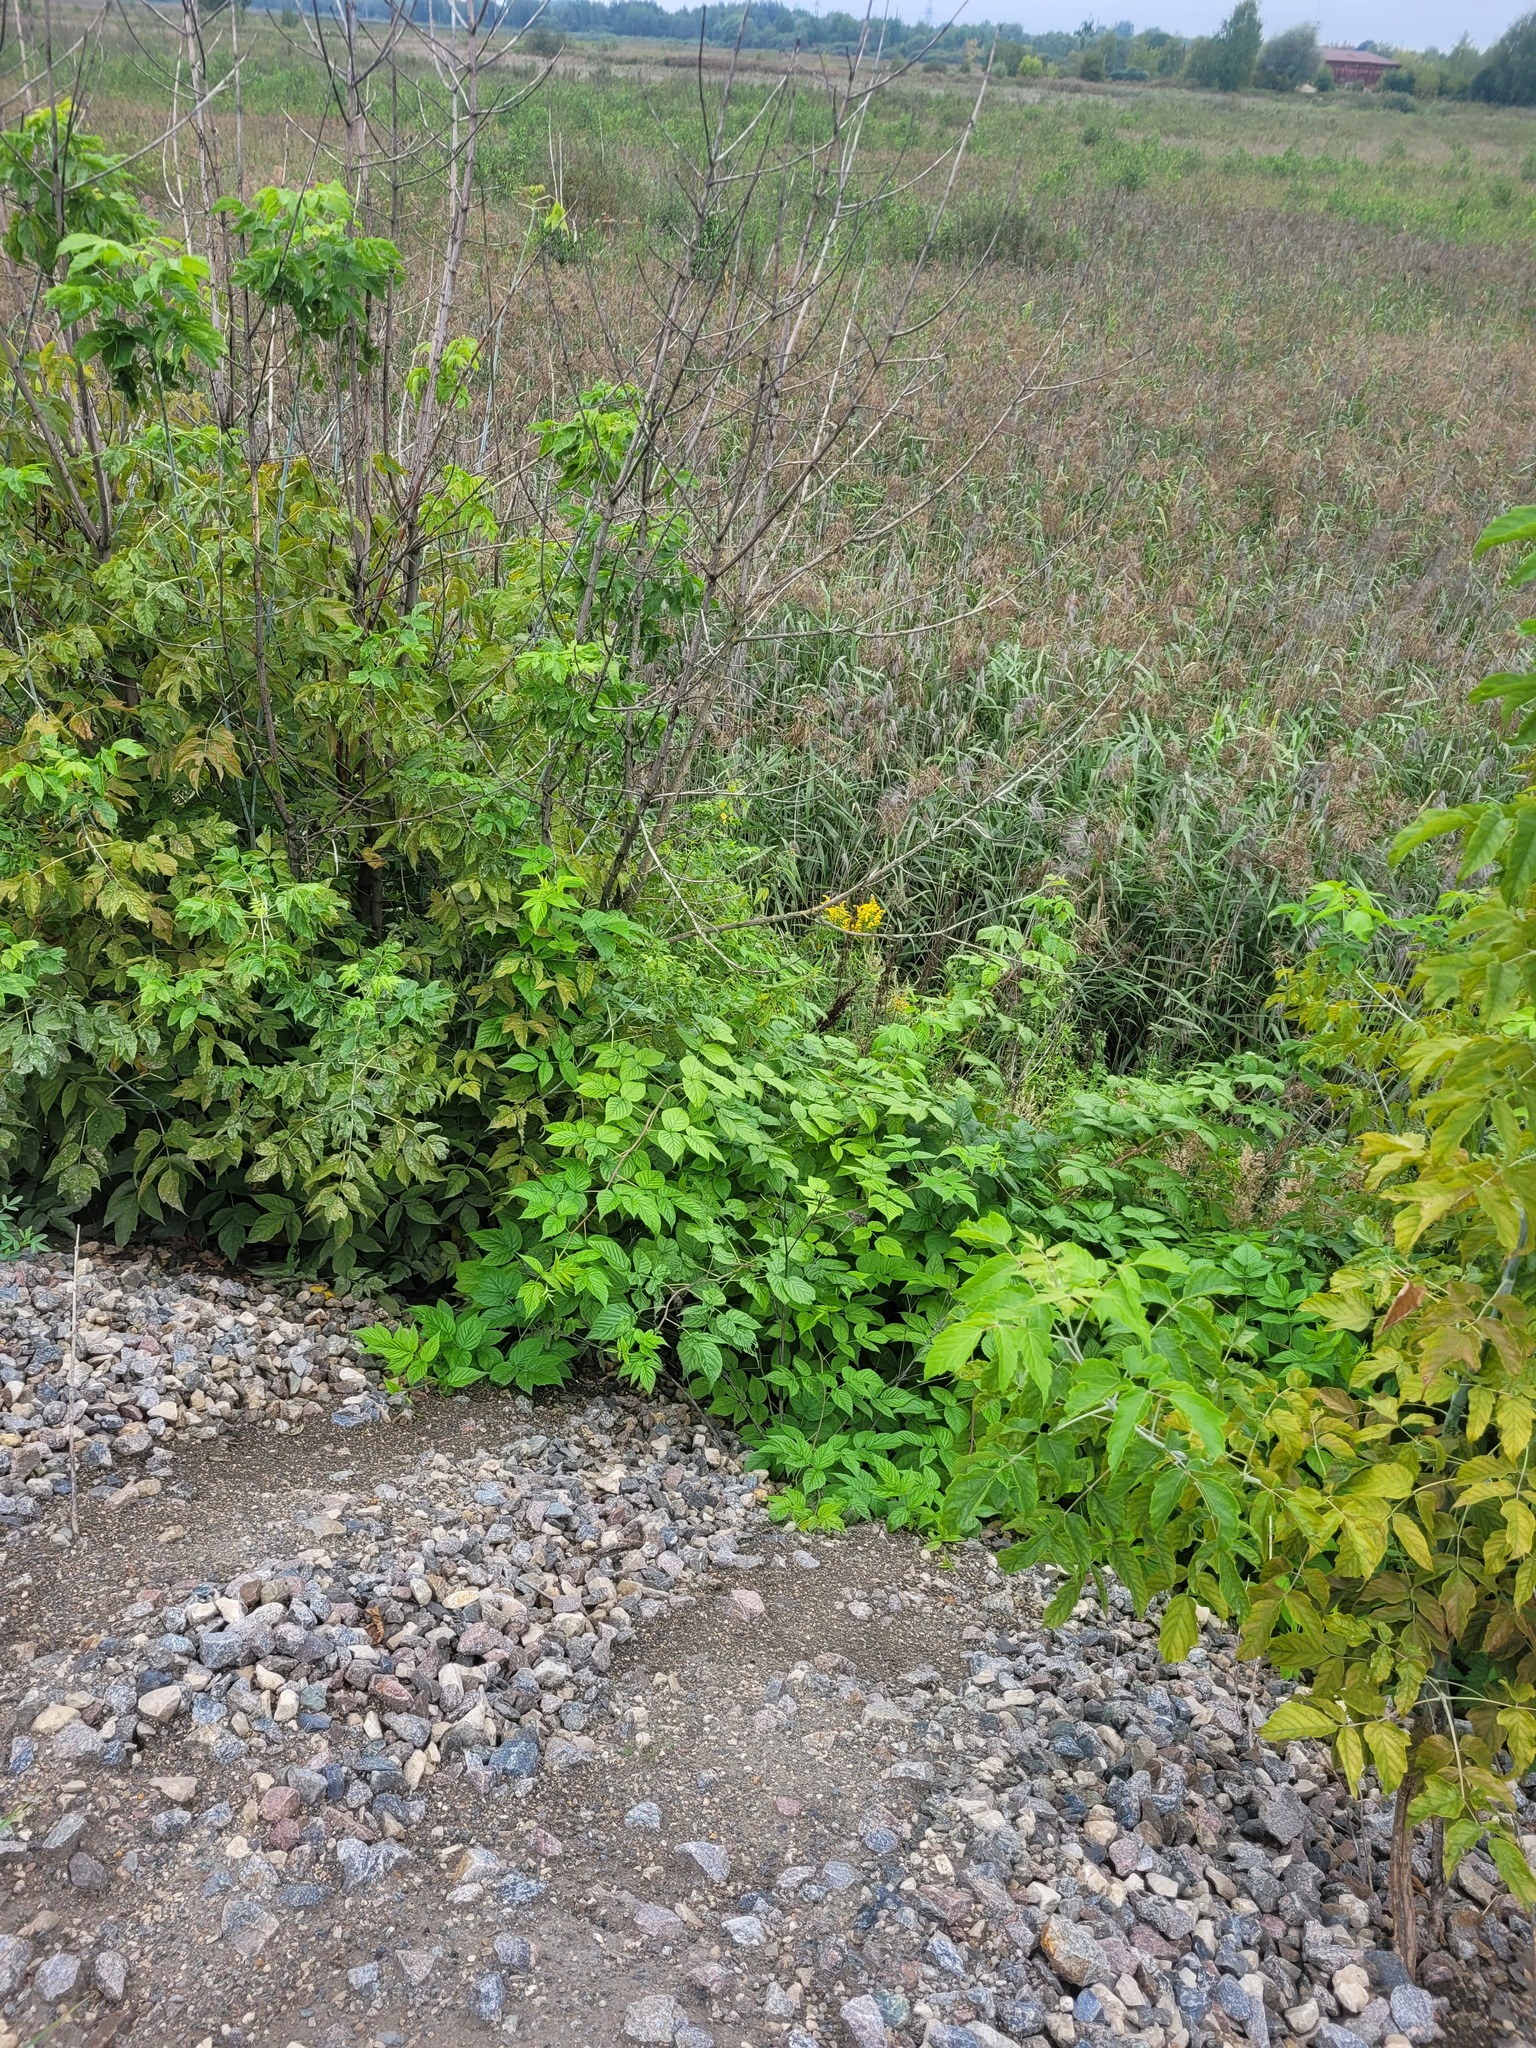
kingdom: Plantae
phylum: Tracheophyta
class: Magnoliopsida
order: Rosales
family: Rosaceae
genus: Rubus
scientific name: Rubus idaeus
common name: Raspberry
